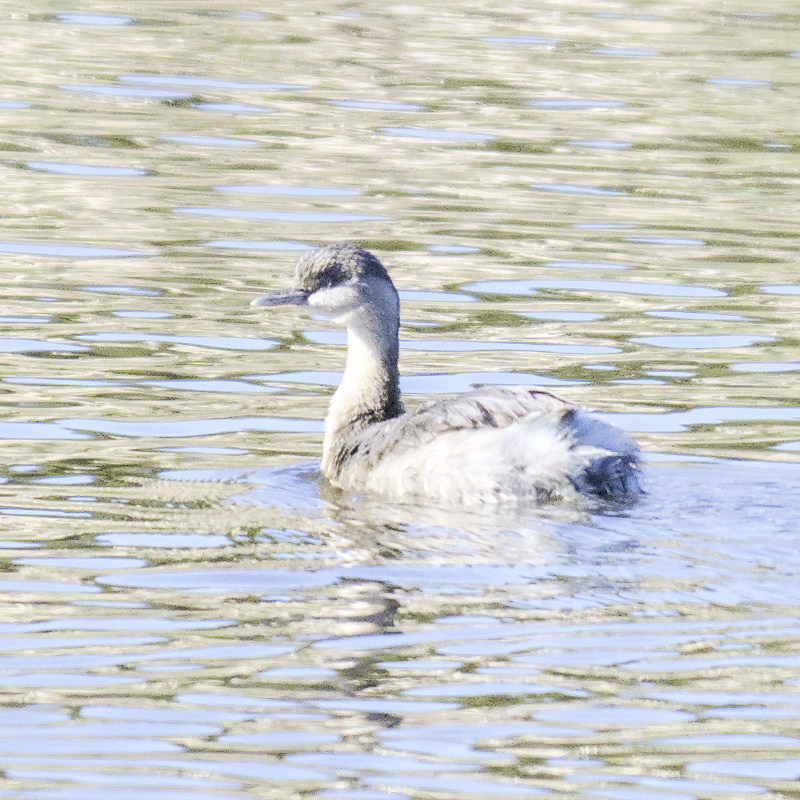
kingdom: Animalia
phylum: Chordata
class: Aves
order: Podicipediformes
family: Podicipedidae
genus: Poliocephalus
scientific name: Poliocephalus poliocephalus
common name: Hoary-headed grebe
